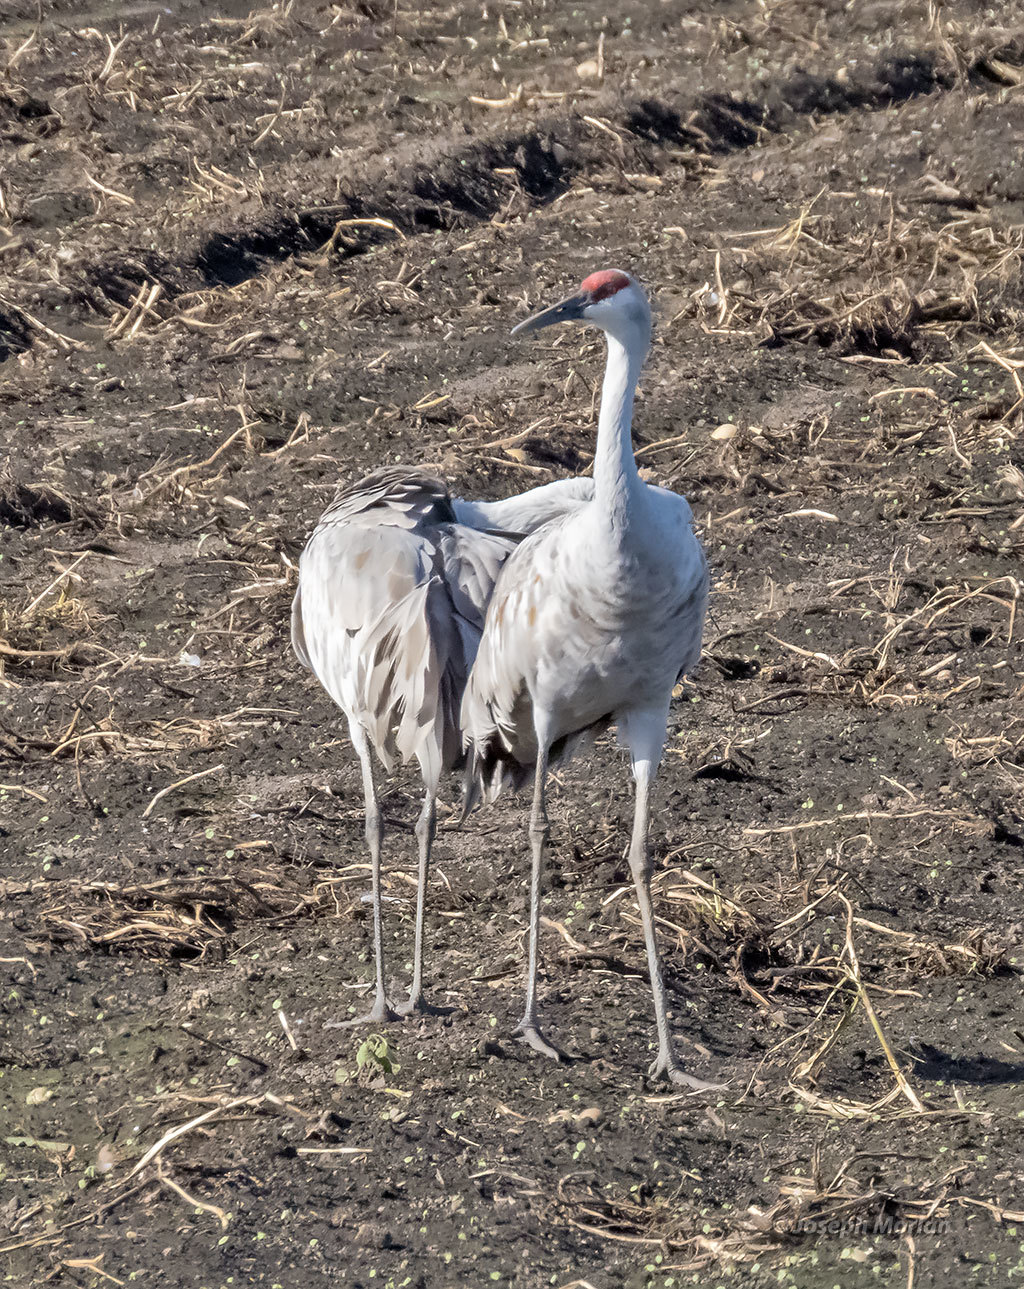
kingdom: Animalia
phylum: Chordata
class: Aves
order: Gruiformes
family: Gruidae
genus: Grus
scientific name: Grus canadensis
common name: Sandhill crane
